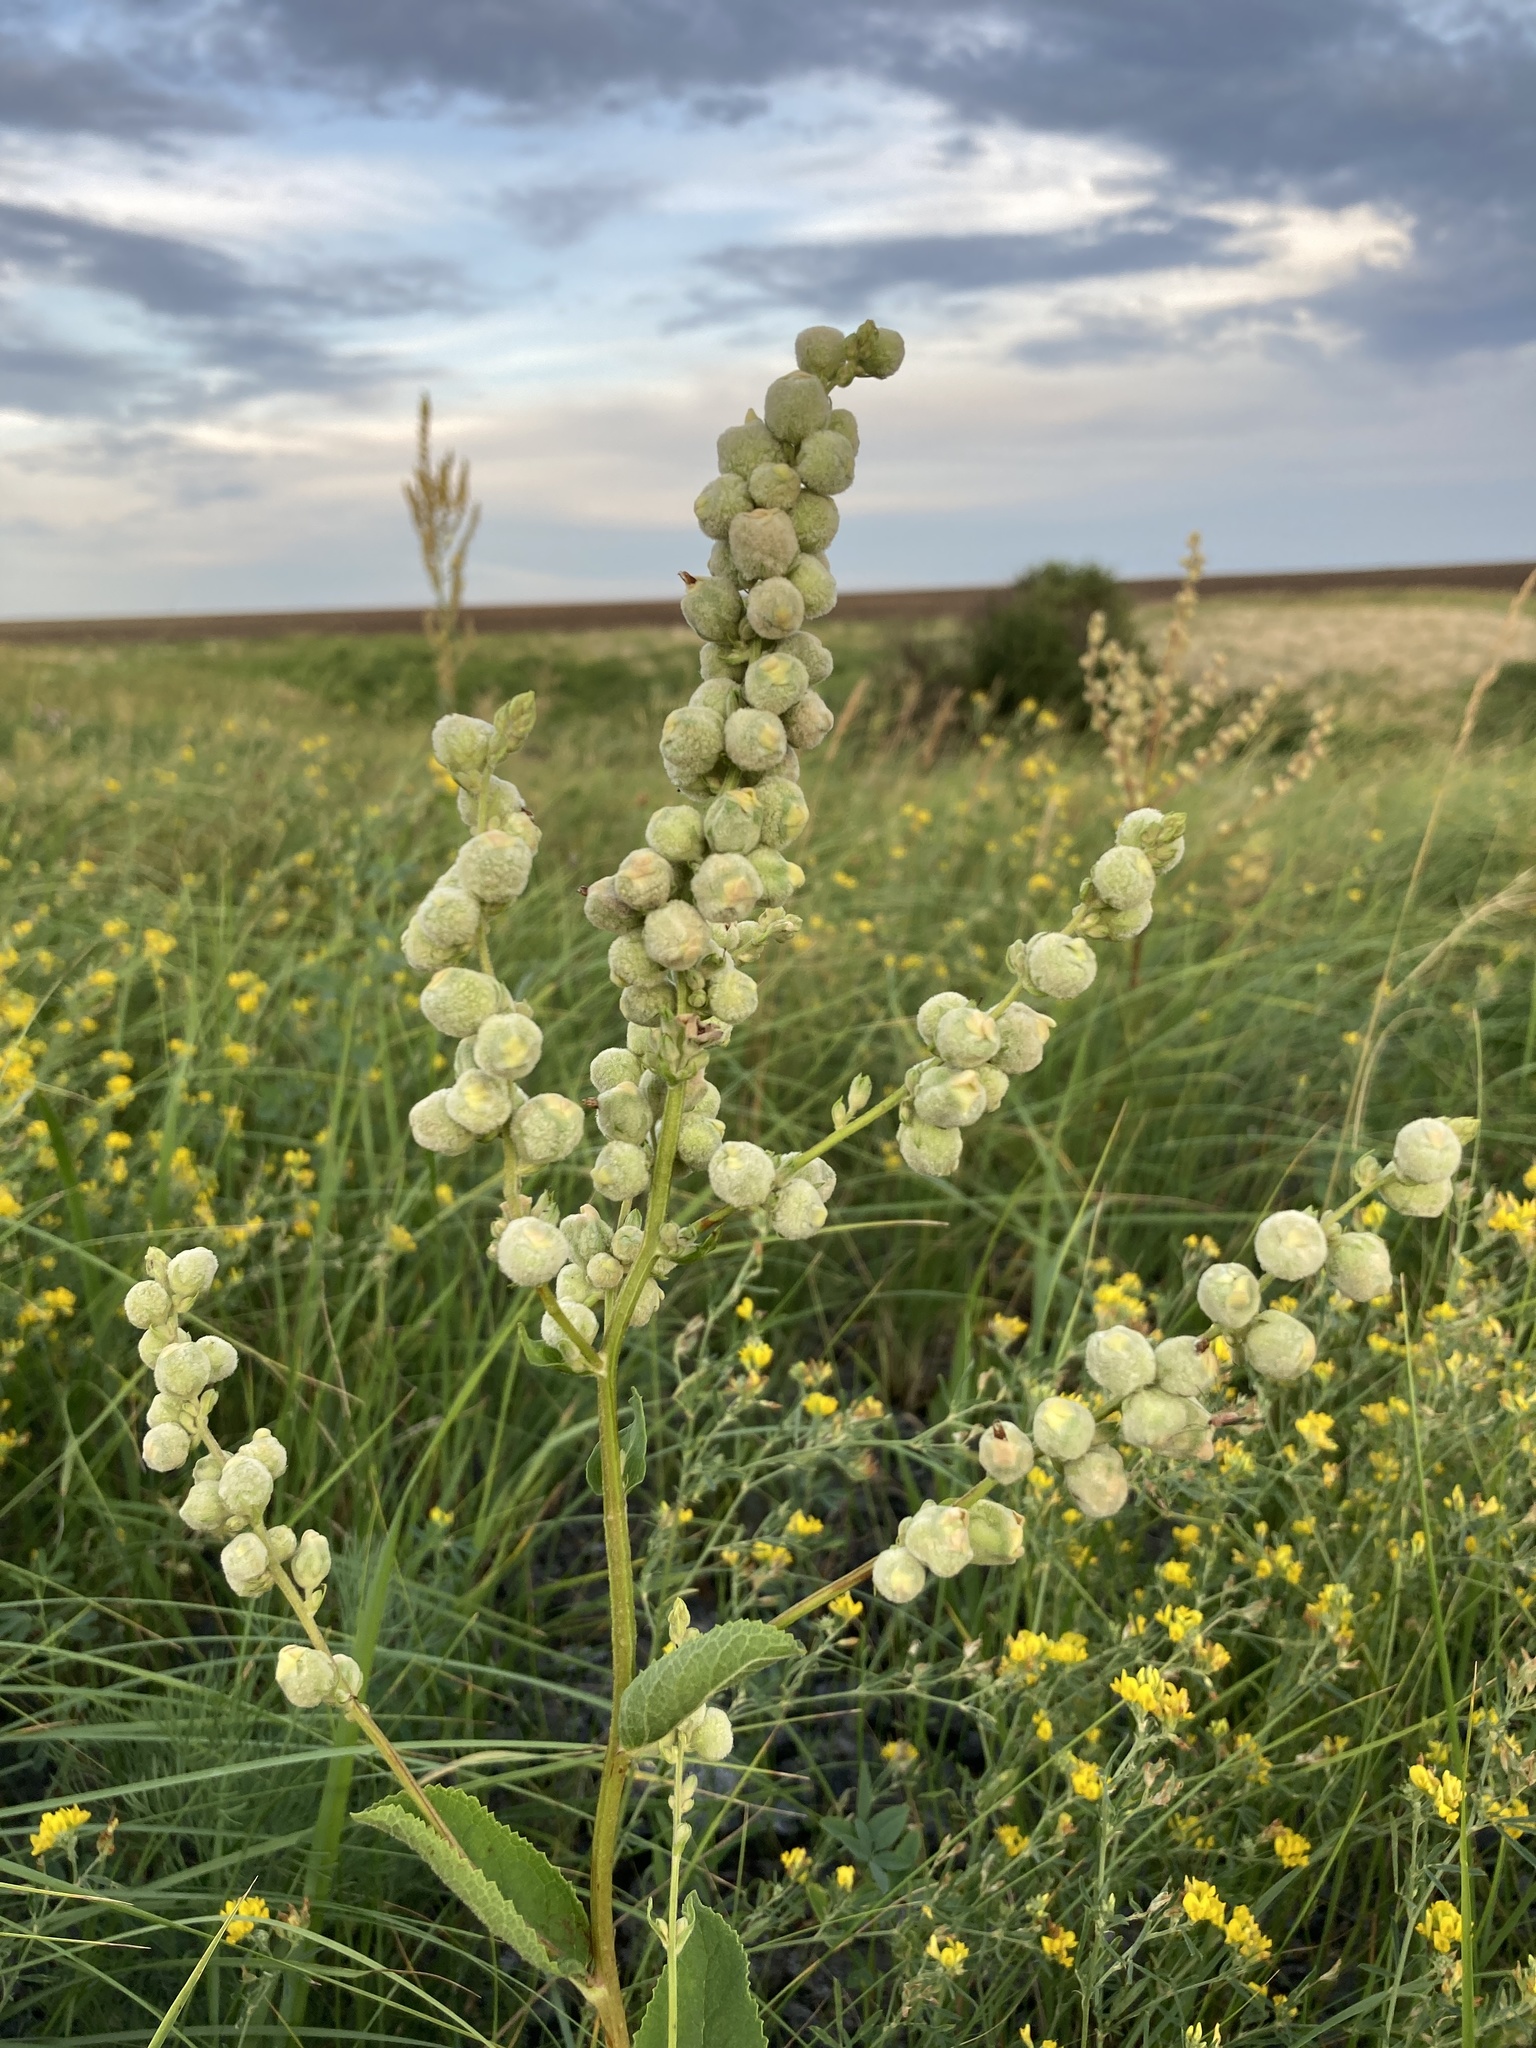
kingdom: Plantae
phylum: Tracheophyta
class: Magnoliopsida
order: Lamiales
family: Scrophulariaceae
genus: Verbascum
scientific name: Verbascum chaixii
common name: Nettle-leaved mullein
